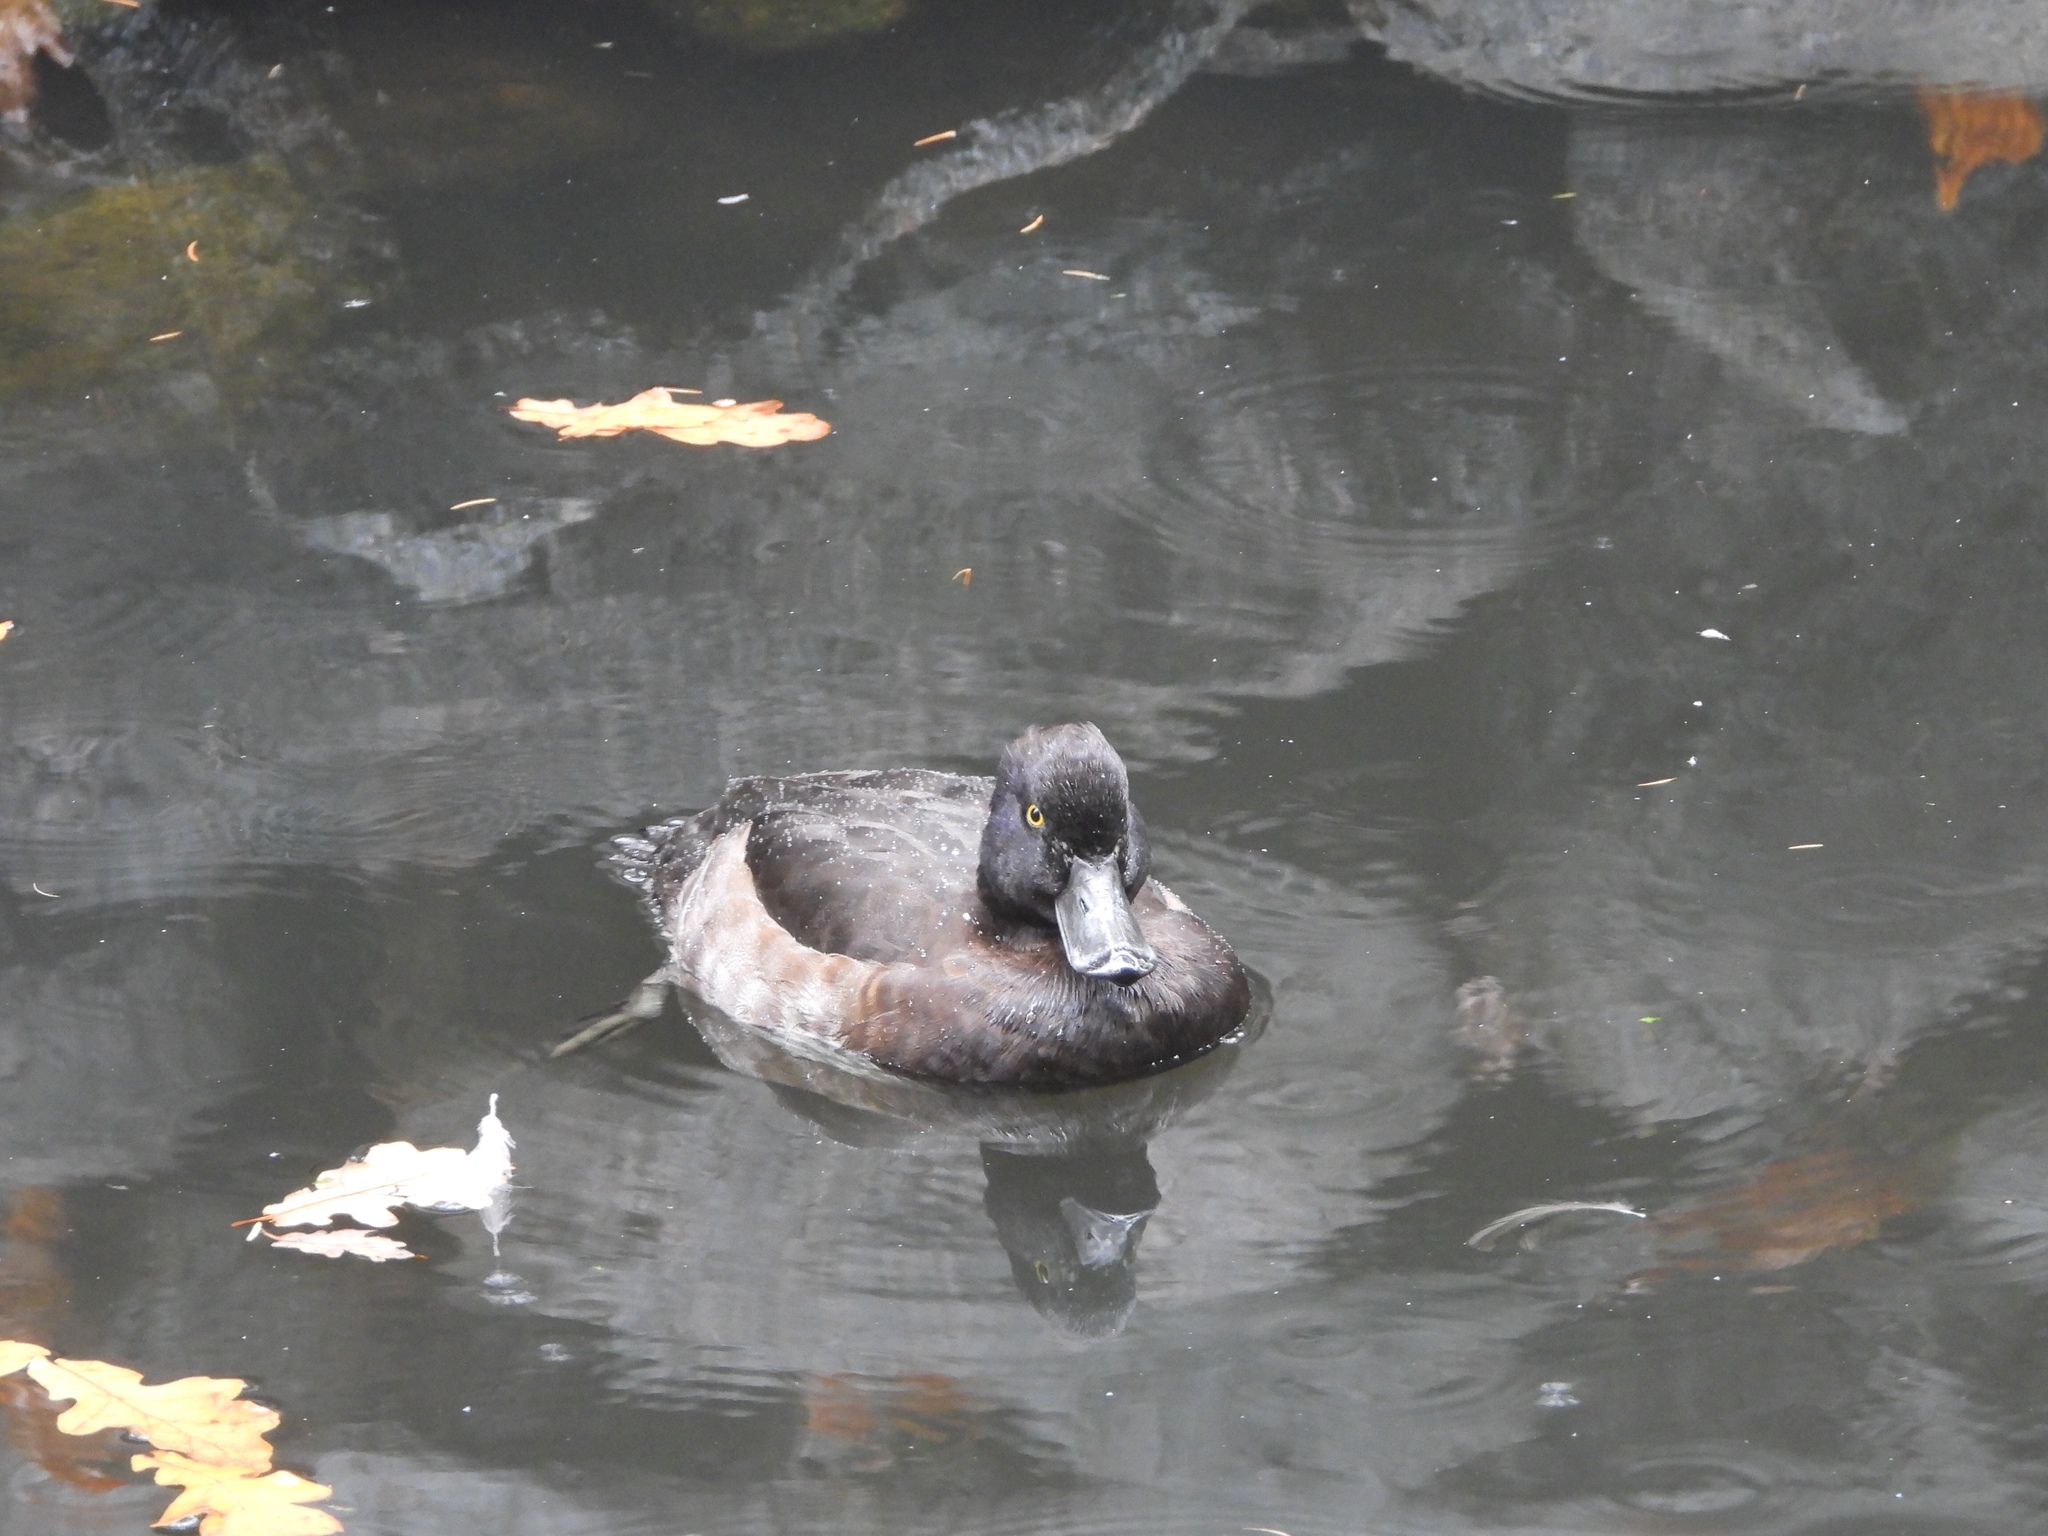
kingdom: Animalia
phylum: Chordata
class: Aves
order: Anseriformes
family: Anatidae
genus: Aythya
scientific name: Aythya fuligula
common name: Tufted duck
